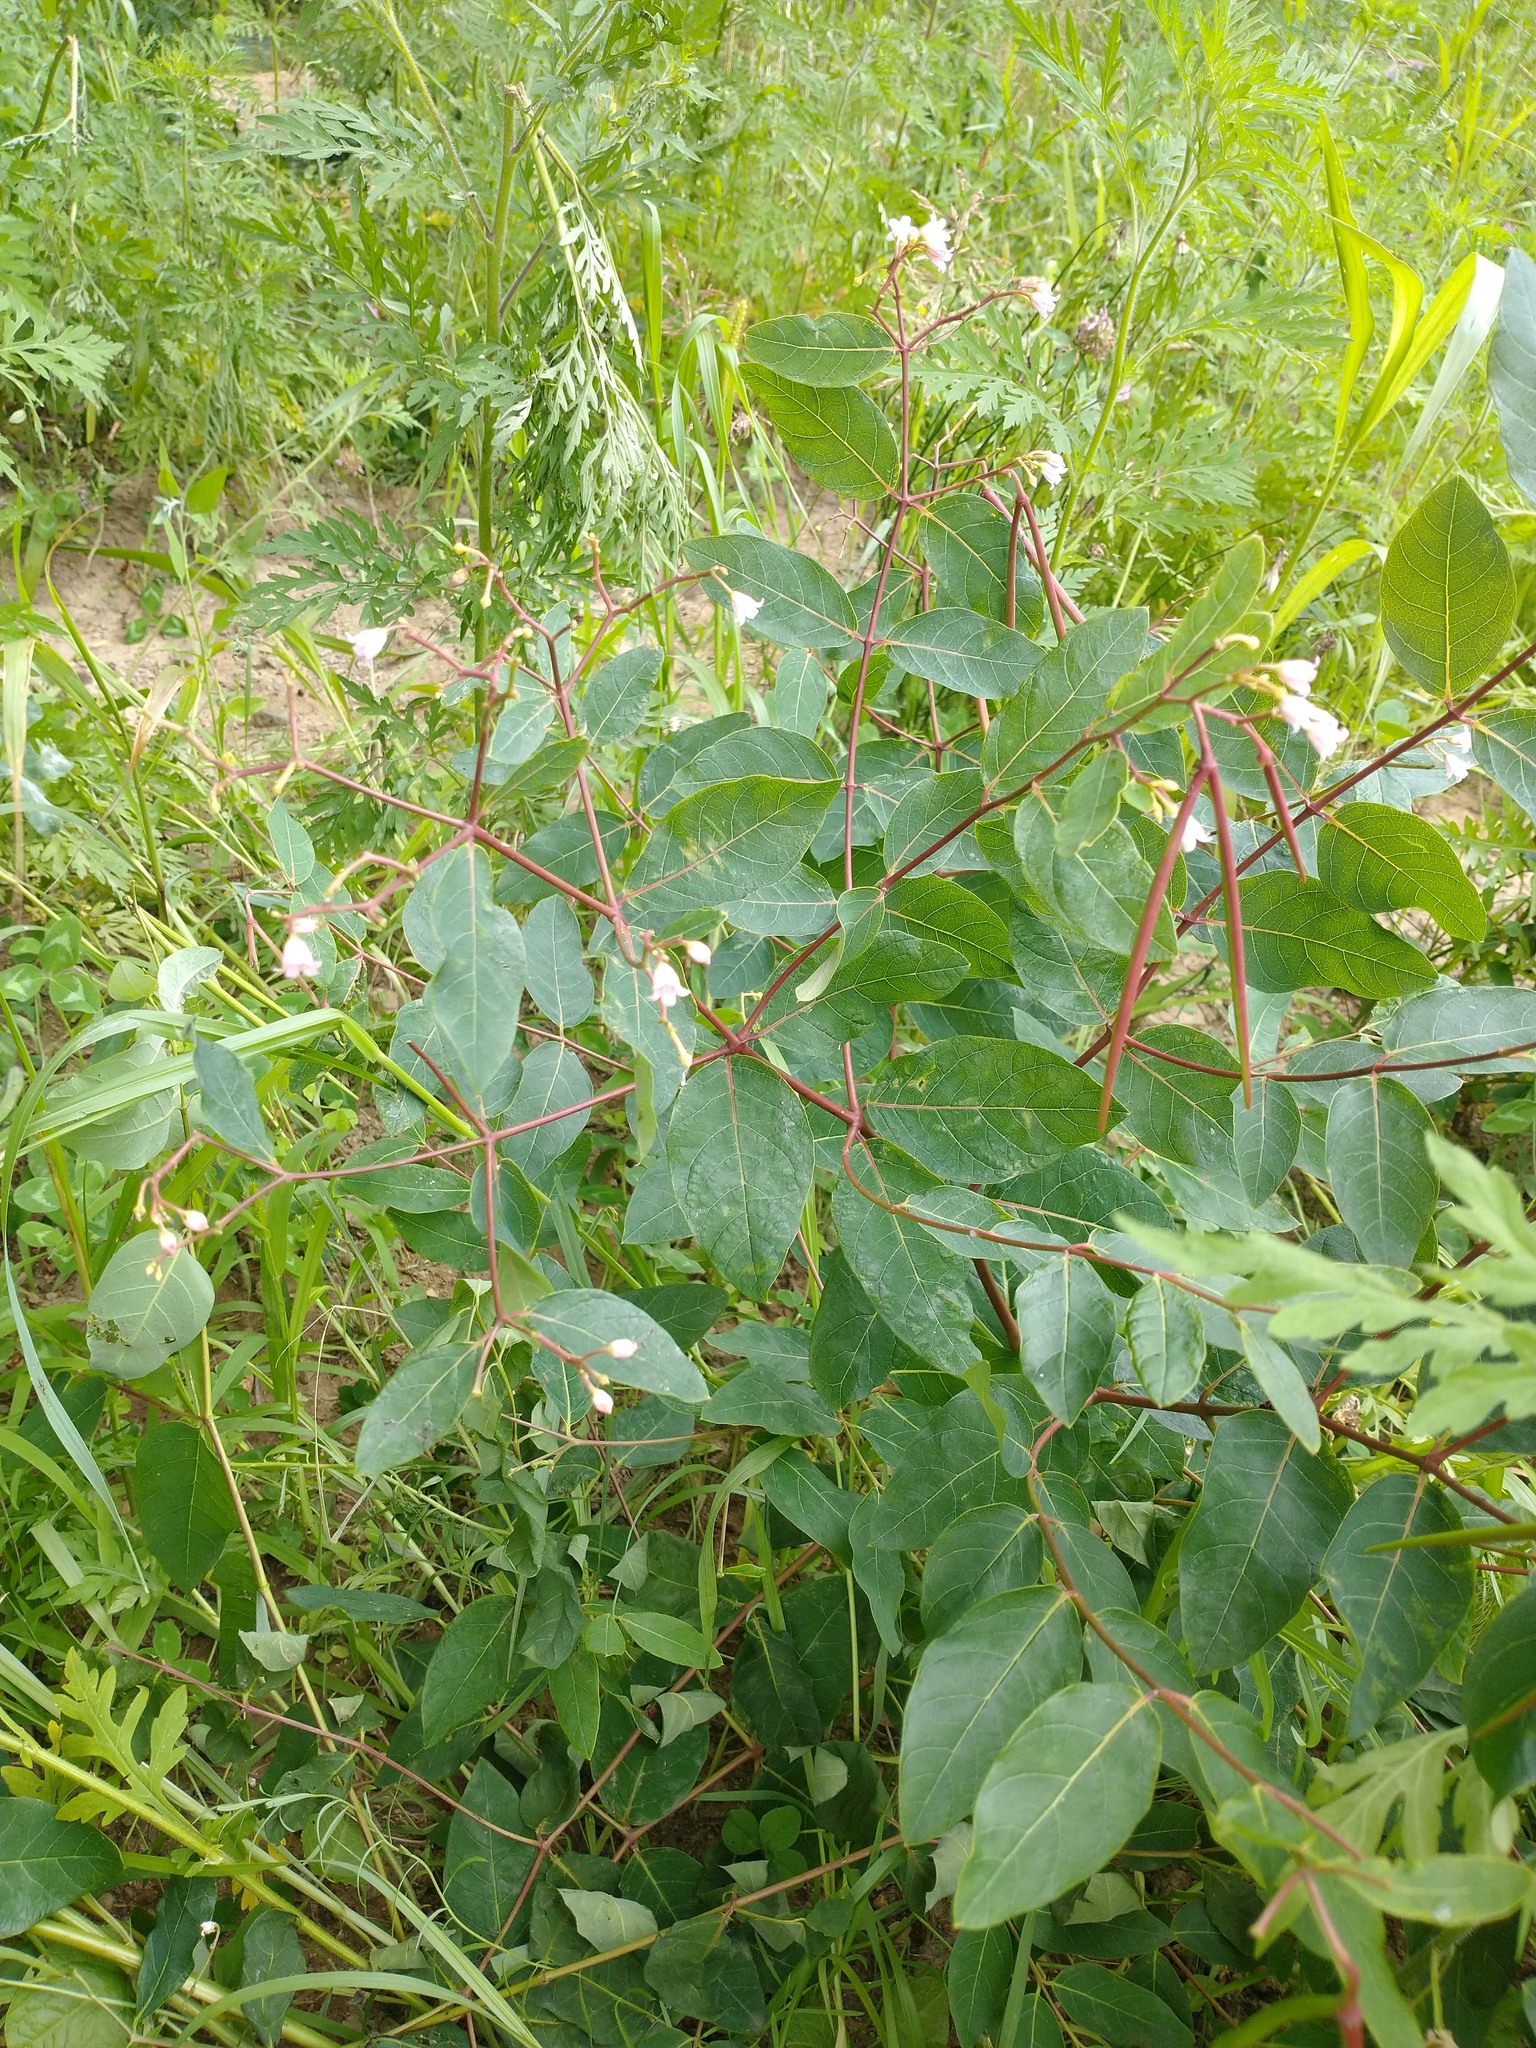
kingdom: Plantae
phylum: Tracheophyta
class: Magnoliopsida
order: Gentianales
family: Apocynaceae
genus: Apocynum
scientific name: Apocynum androsaemifolium
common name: Spreading dogbane
